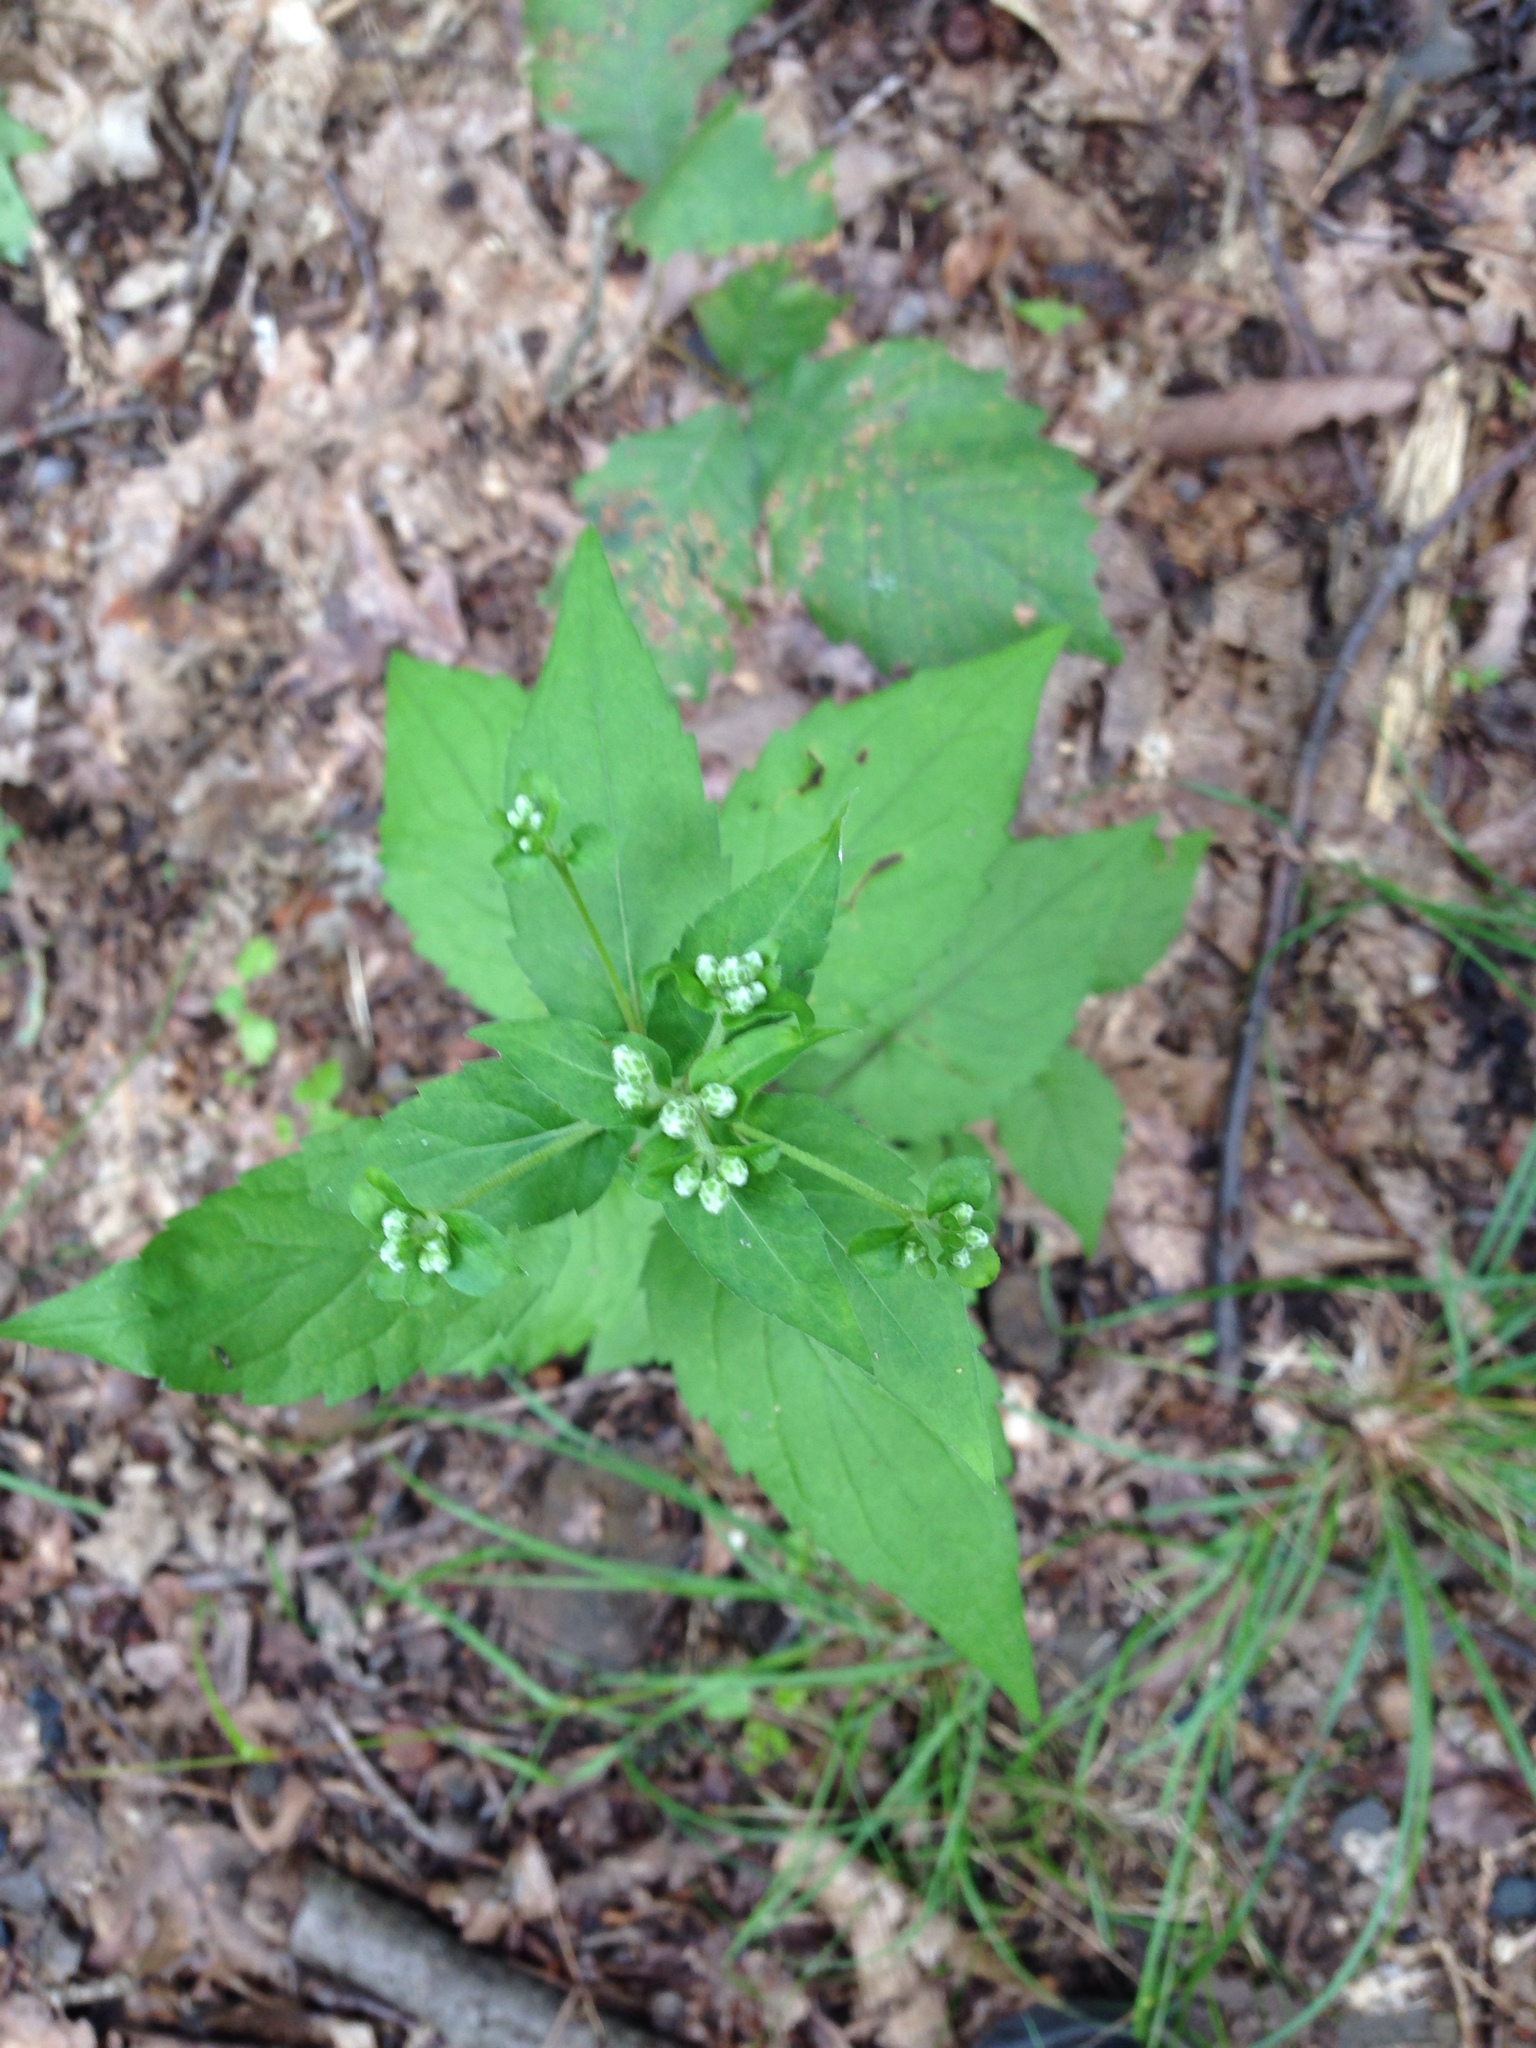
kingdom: Plantae
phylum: Tracheophyta
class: Magnoliopsida
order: Asterales
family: Asteraceae
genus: Ageratina
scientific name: Ageratina altissima
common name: White snakeroot
